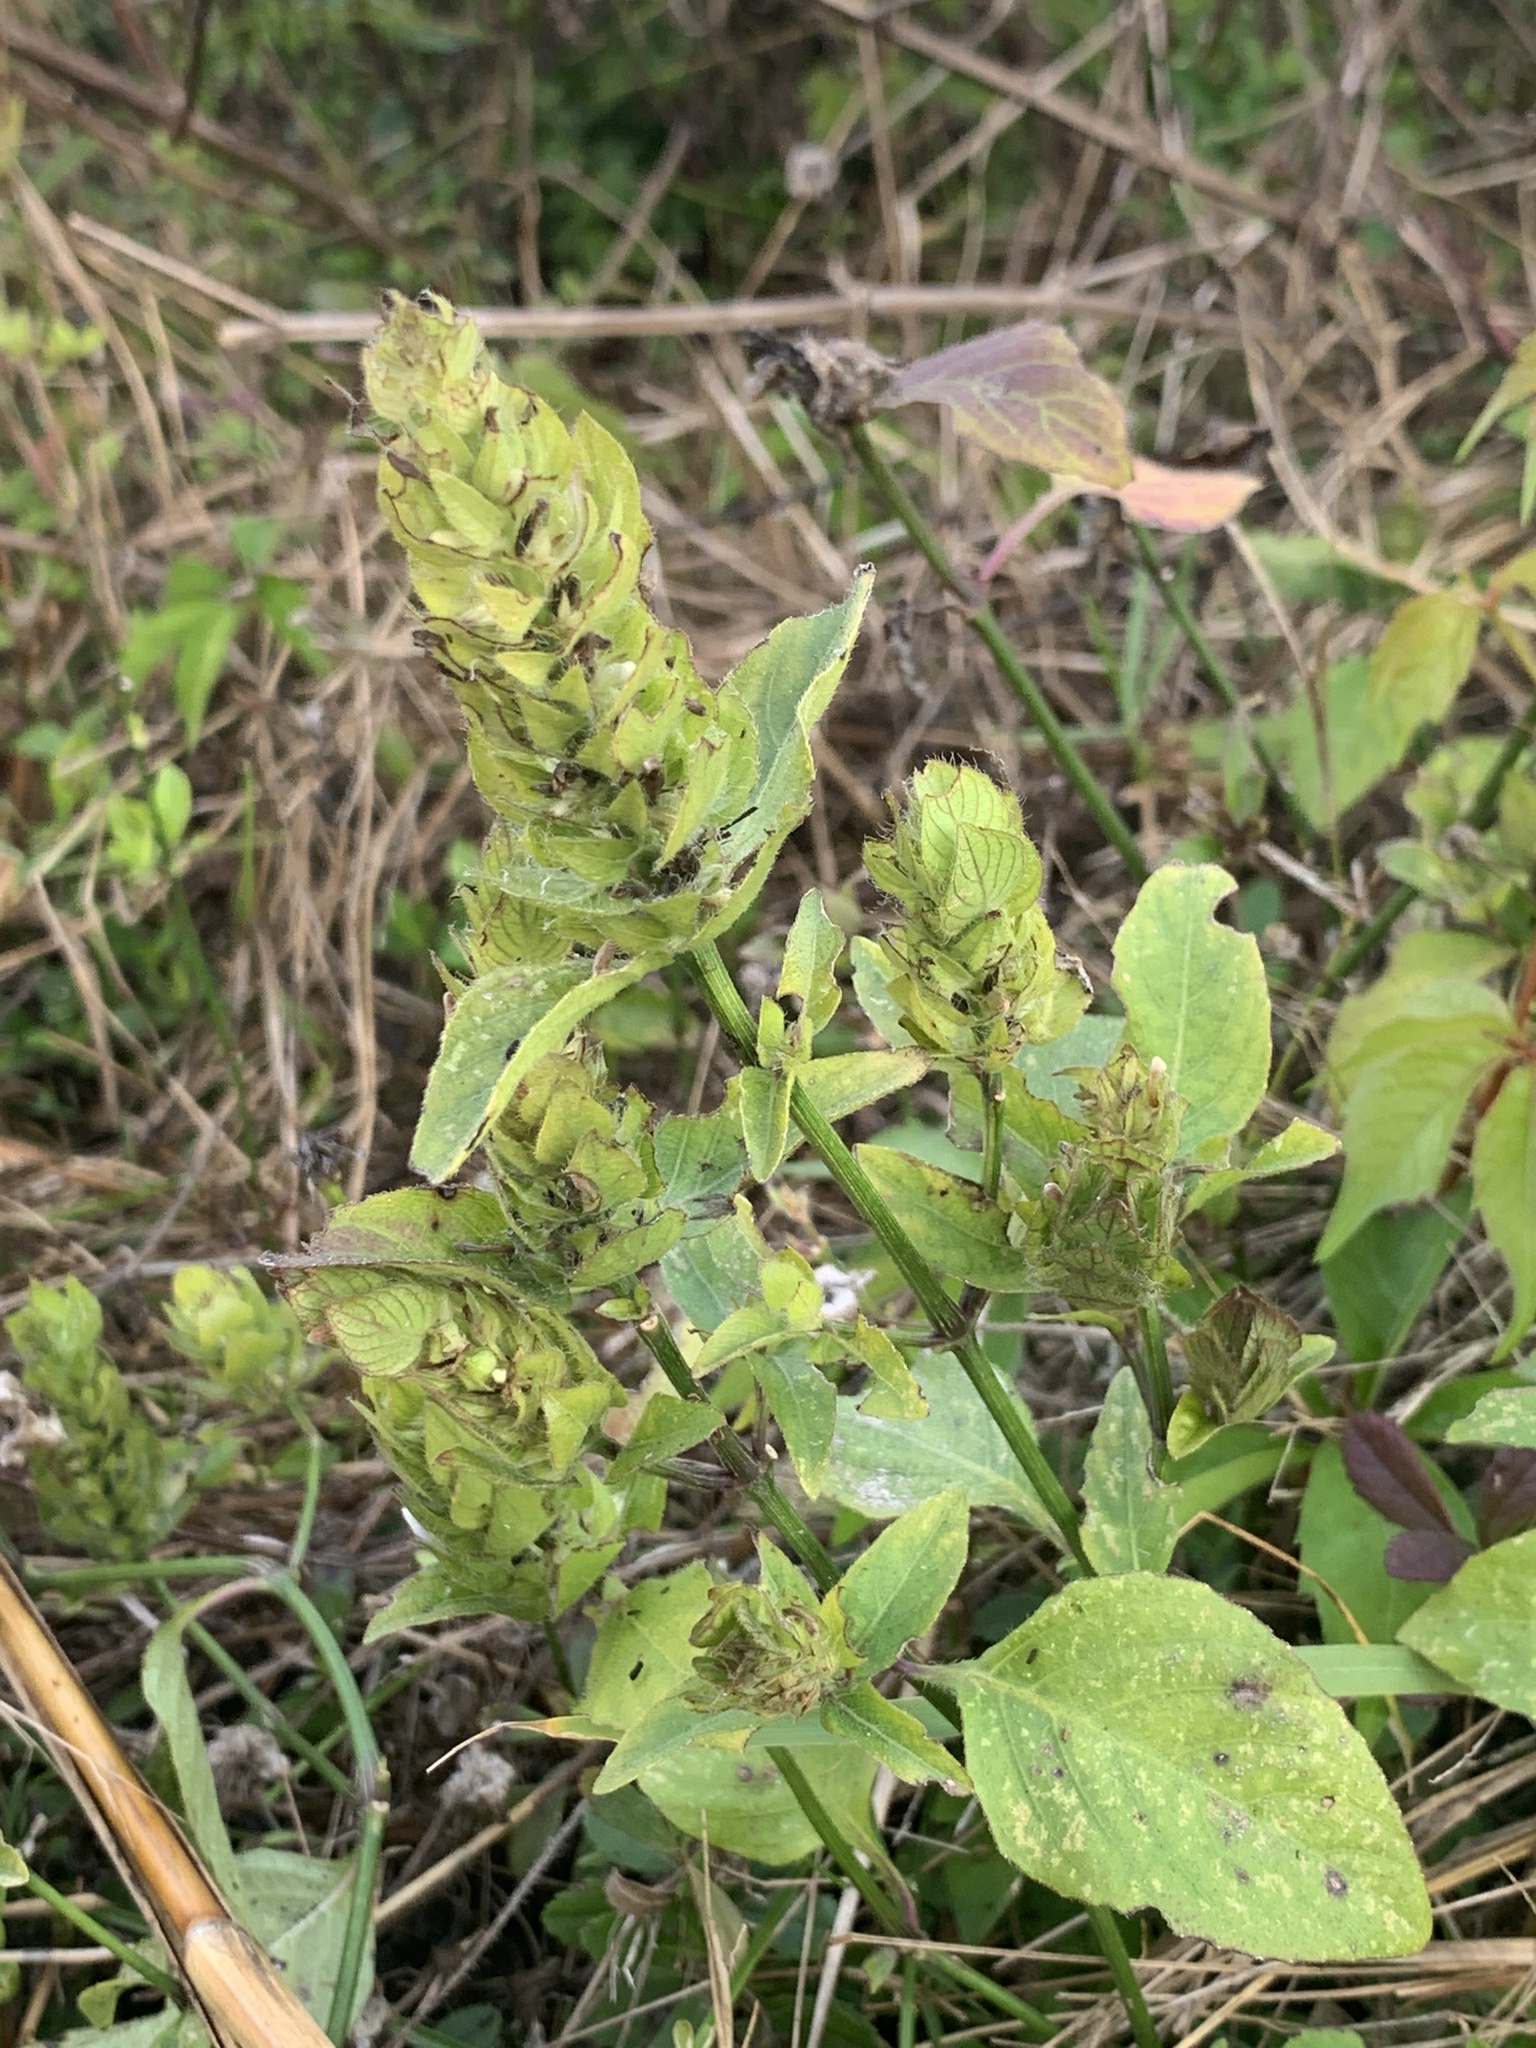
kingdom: Plantae
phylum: Tracheophyta
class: Magnoliopsida
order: Lamiales
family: Acanthaceae
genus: Ruellia
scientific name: Ruellia blechum
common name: Browne's blechum
